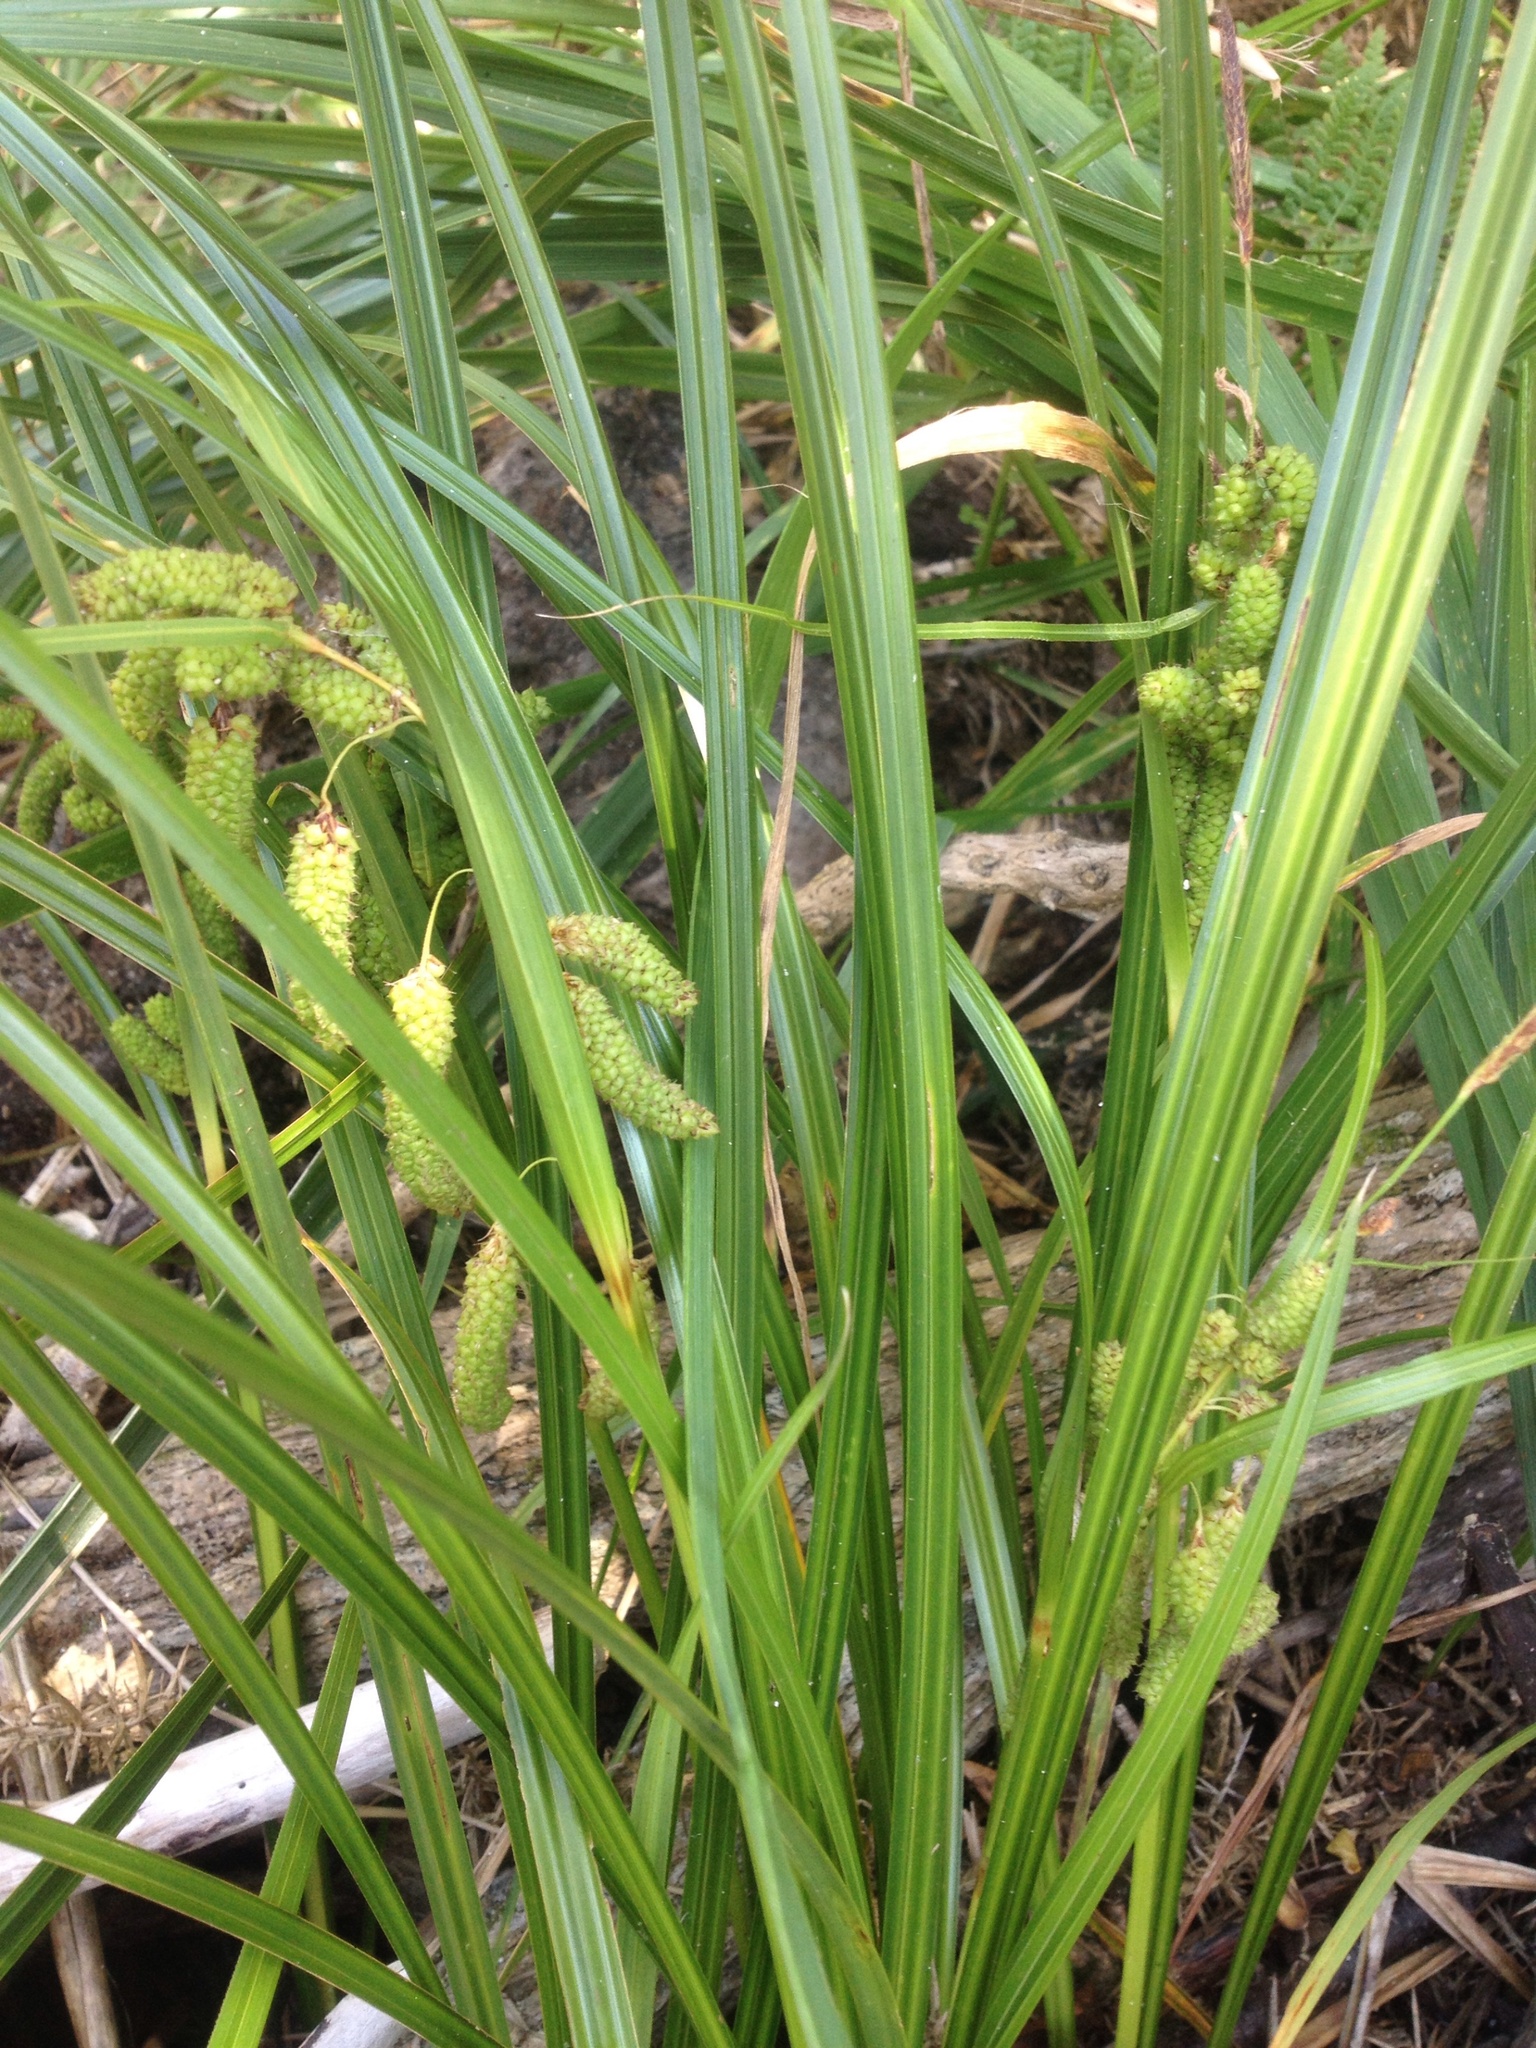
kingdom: Plantae
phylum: Tracheophyta
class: Liliopsida
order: Poales
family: Cyperaceae
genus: Carex
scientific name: Carex geminata
